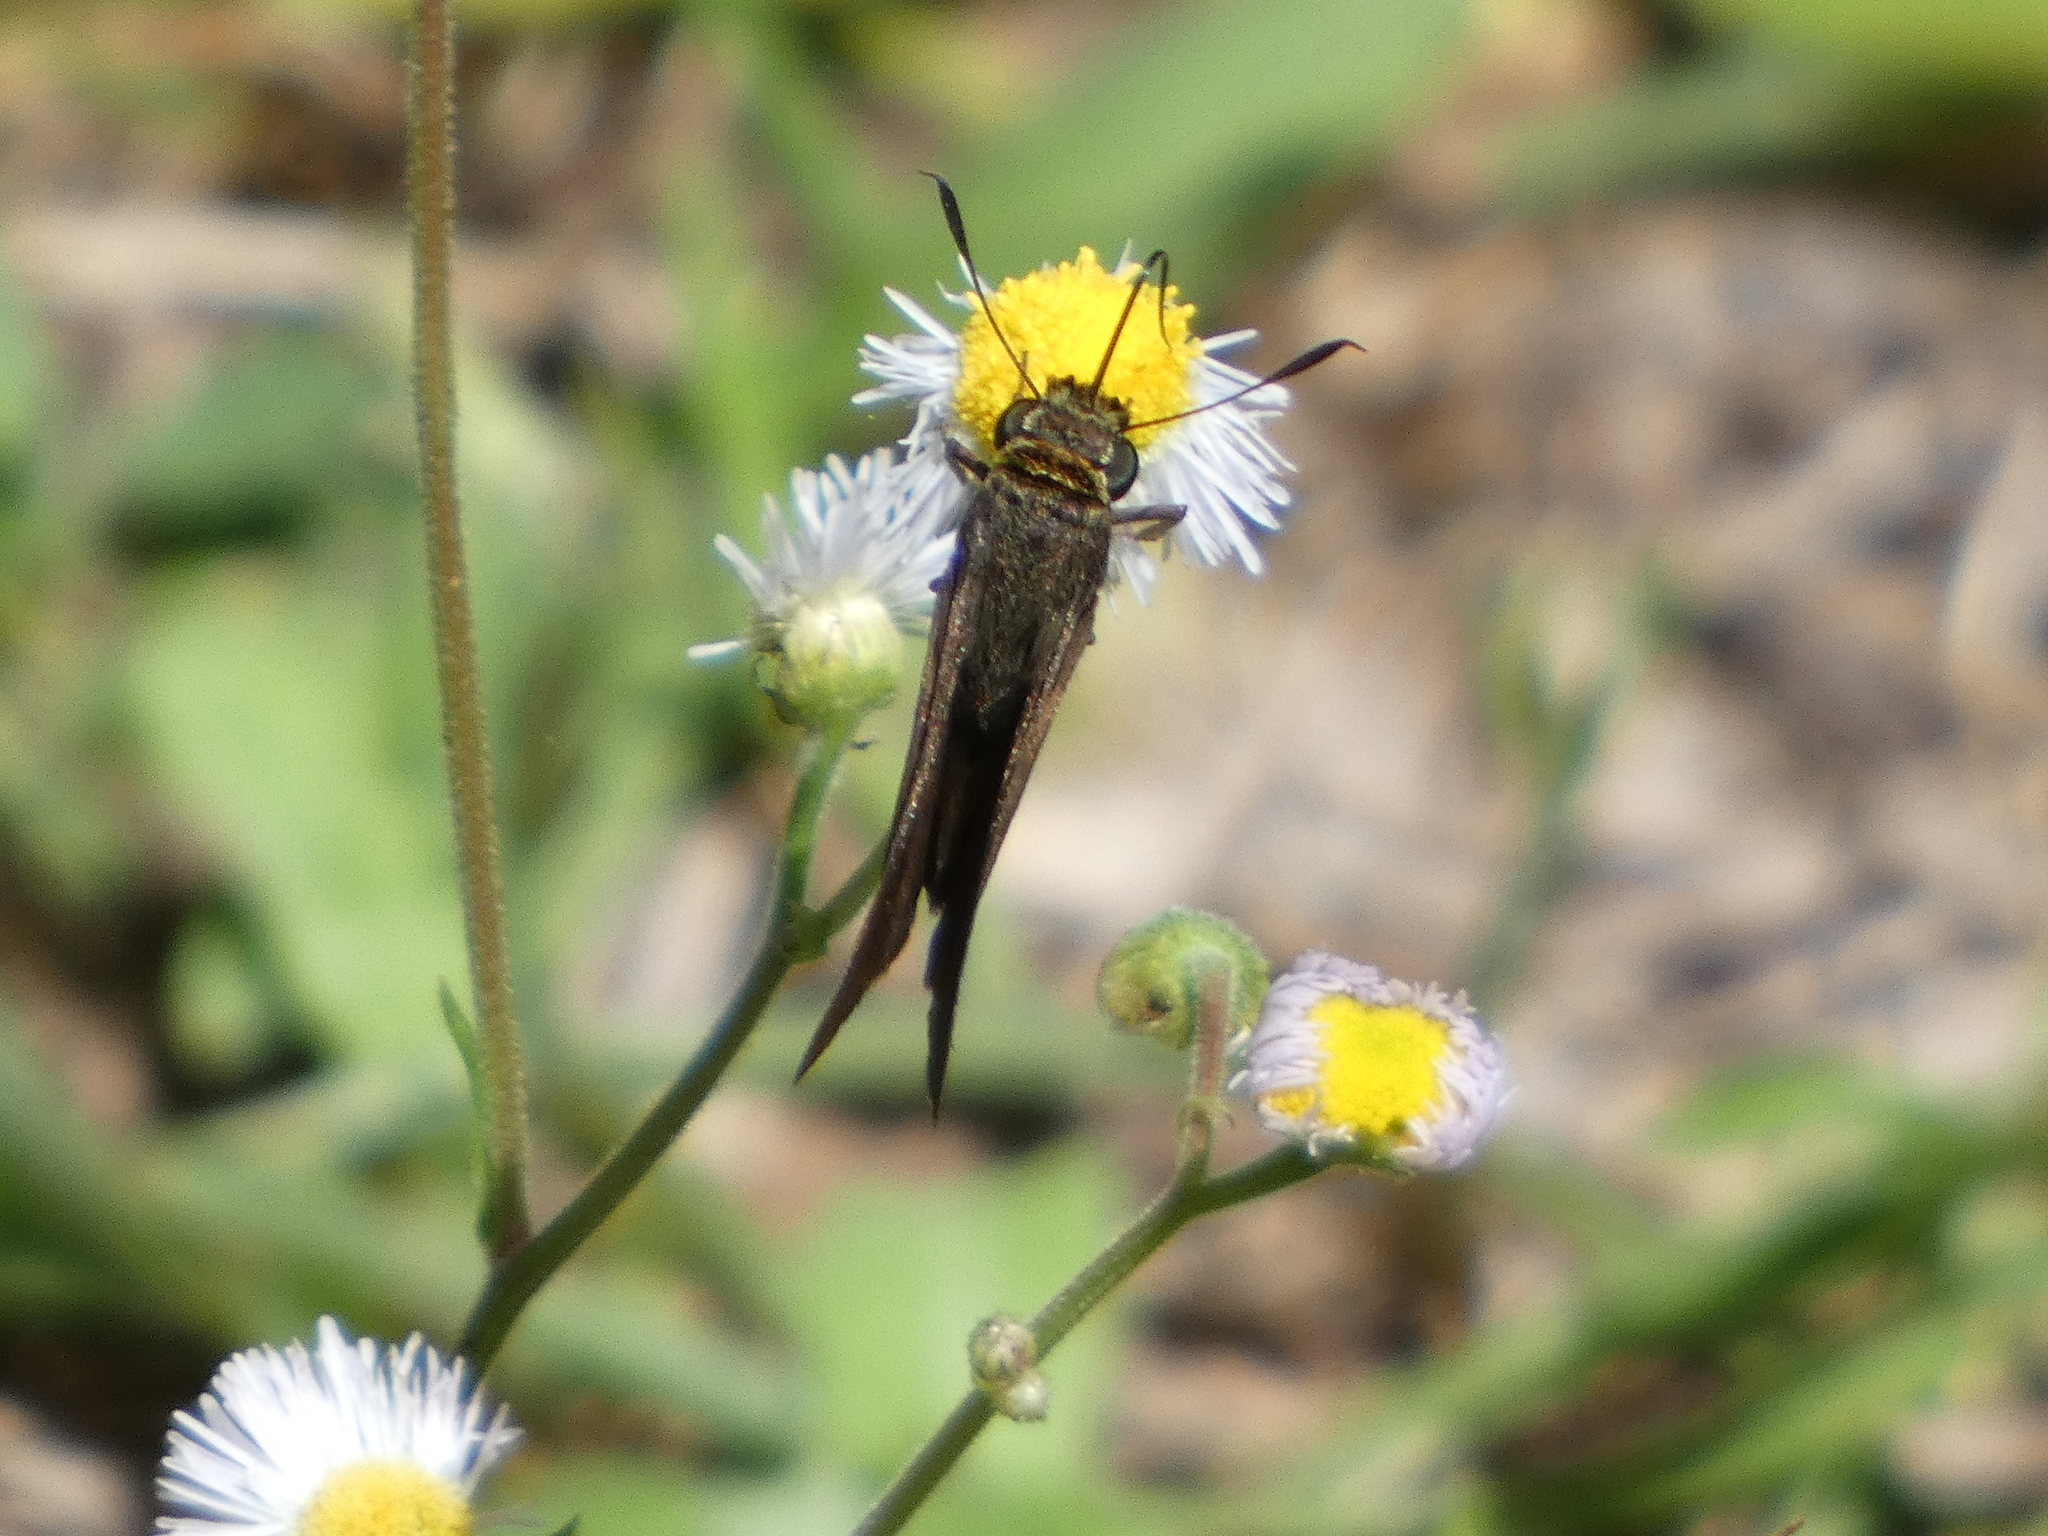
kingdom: Animalia
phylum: Arthropoda
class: Insecta
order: Lepidoptera
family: Hesperiidae
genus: Euphyes
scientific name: Euphyes vestris
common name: Dun skipper
